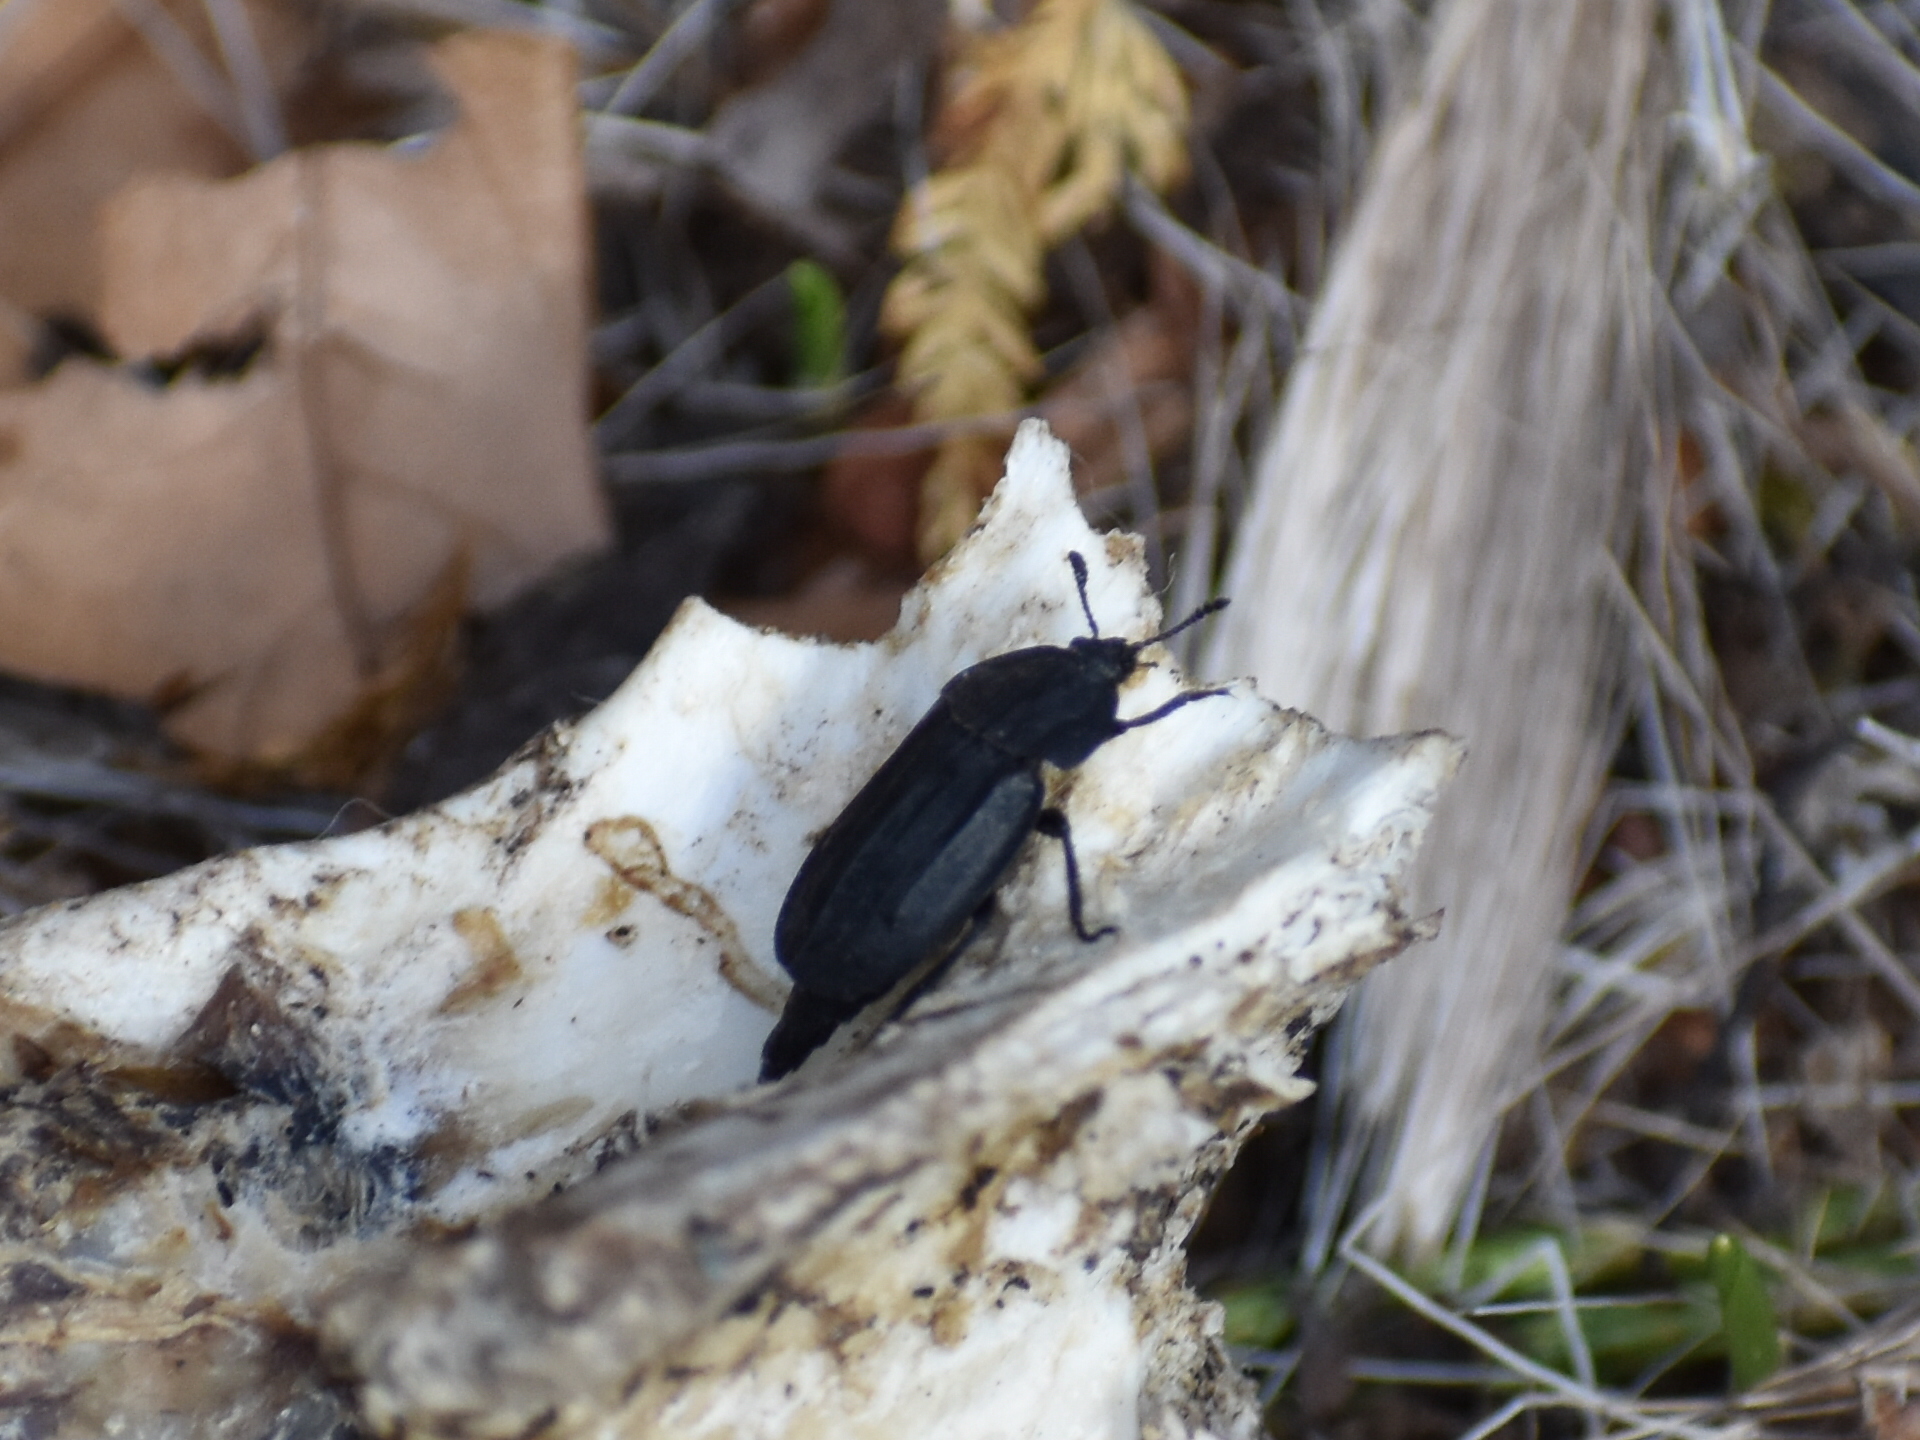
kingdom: Animalia
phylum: Arthropoda
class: Insecta
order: Coleoptera
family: Staphylinidae
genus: Oiceoptoma
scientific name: Oiceoptoma inaequale
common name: Ridged carrion beetle
